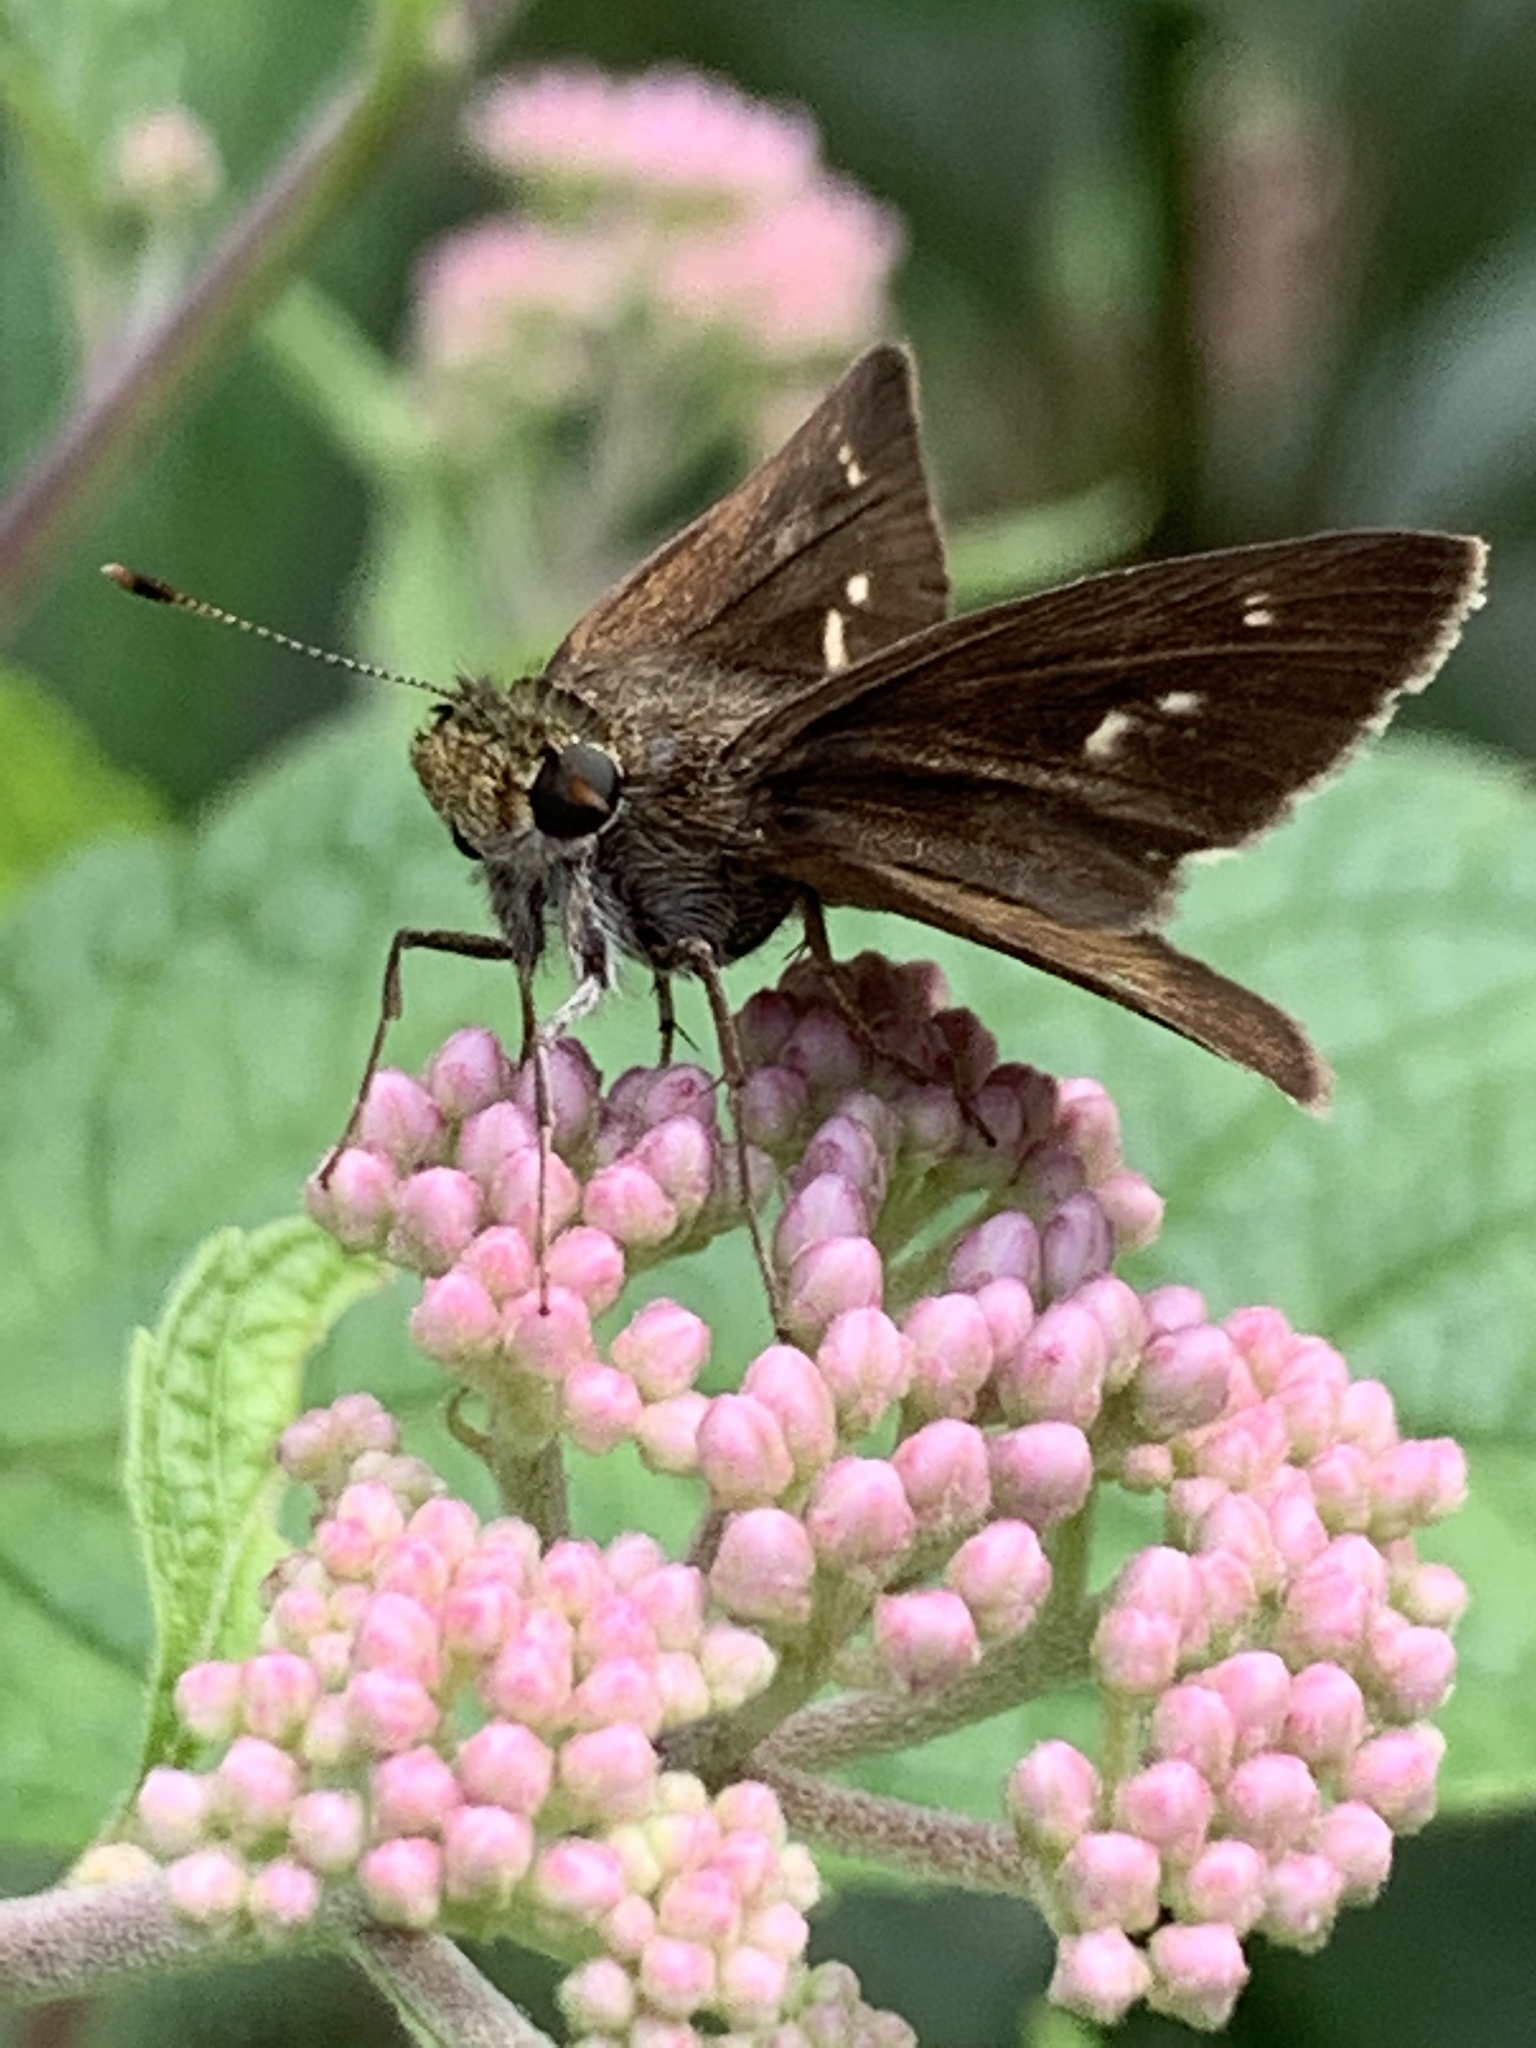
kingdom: Animalia
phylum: Arthropoda
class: Insecta
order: Lepidoptera
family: Hesperiidae
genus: Euphyes
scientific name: Euphyes vestris
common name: Dun skipper
